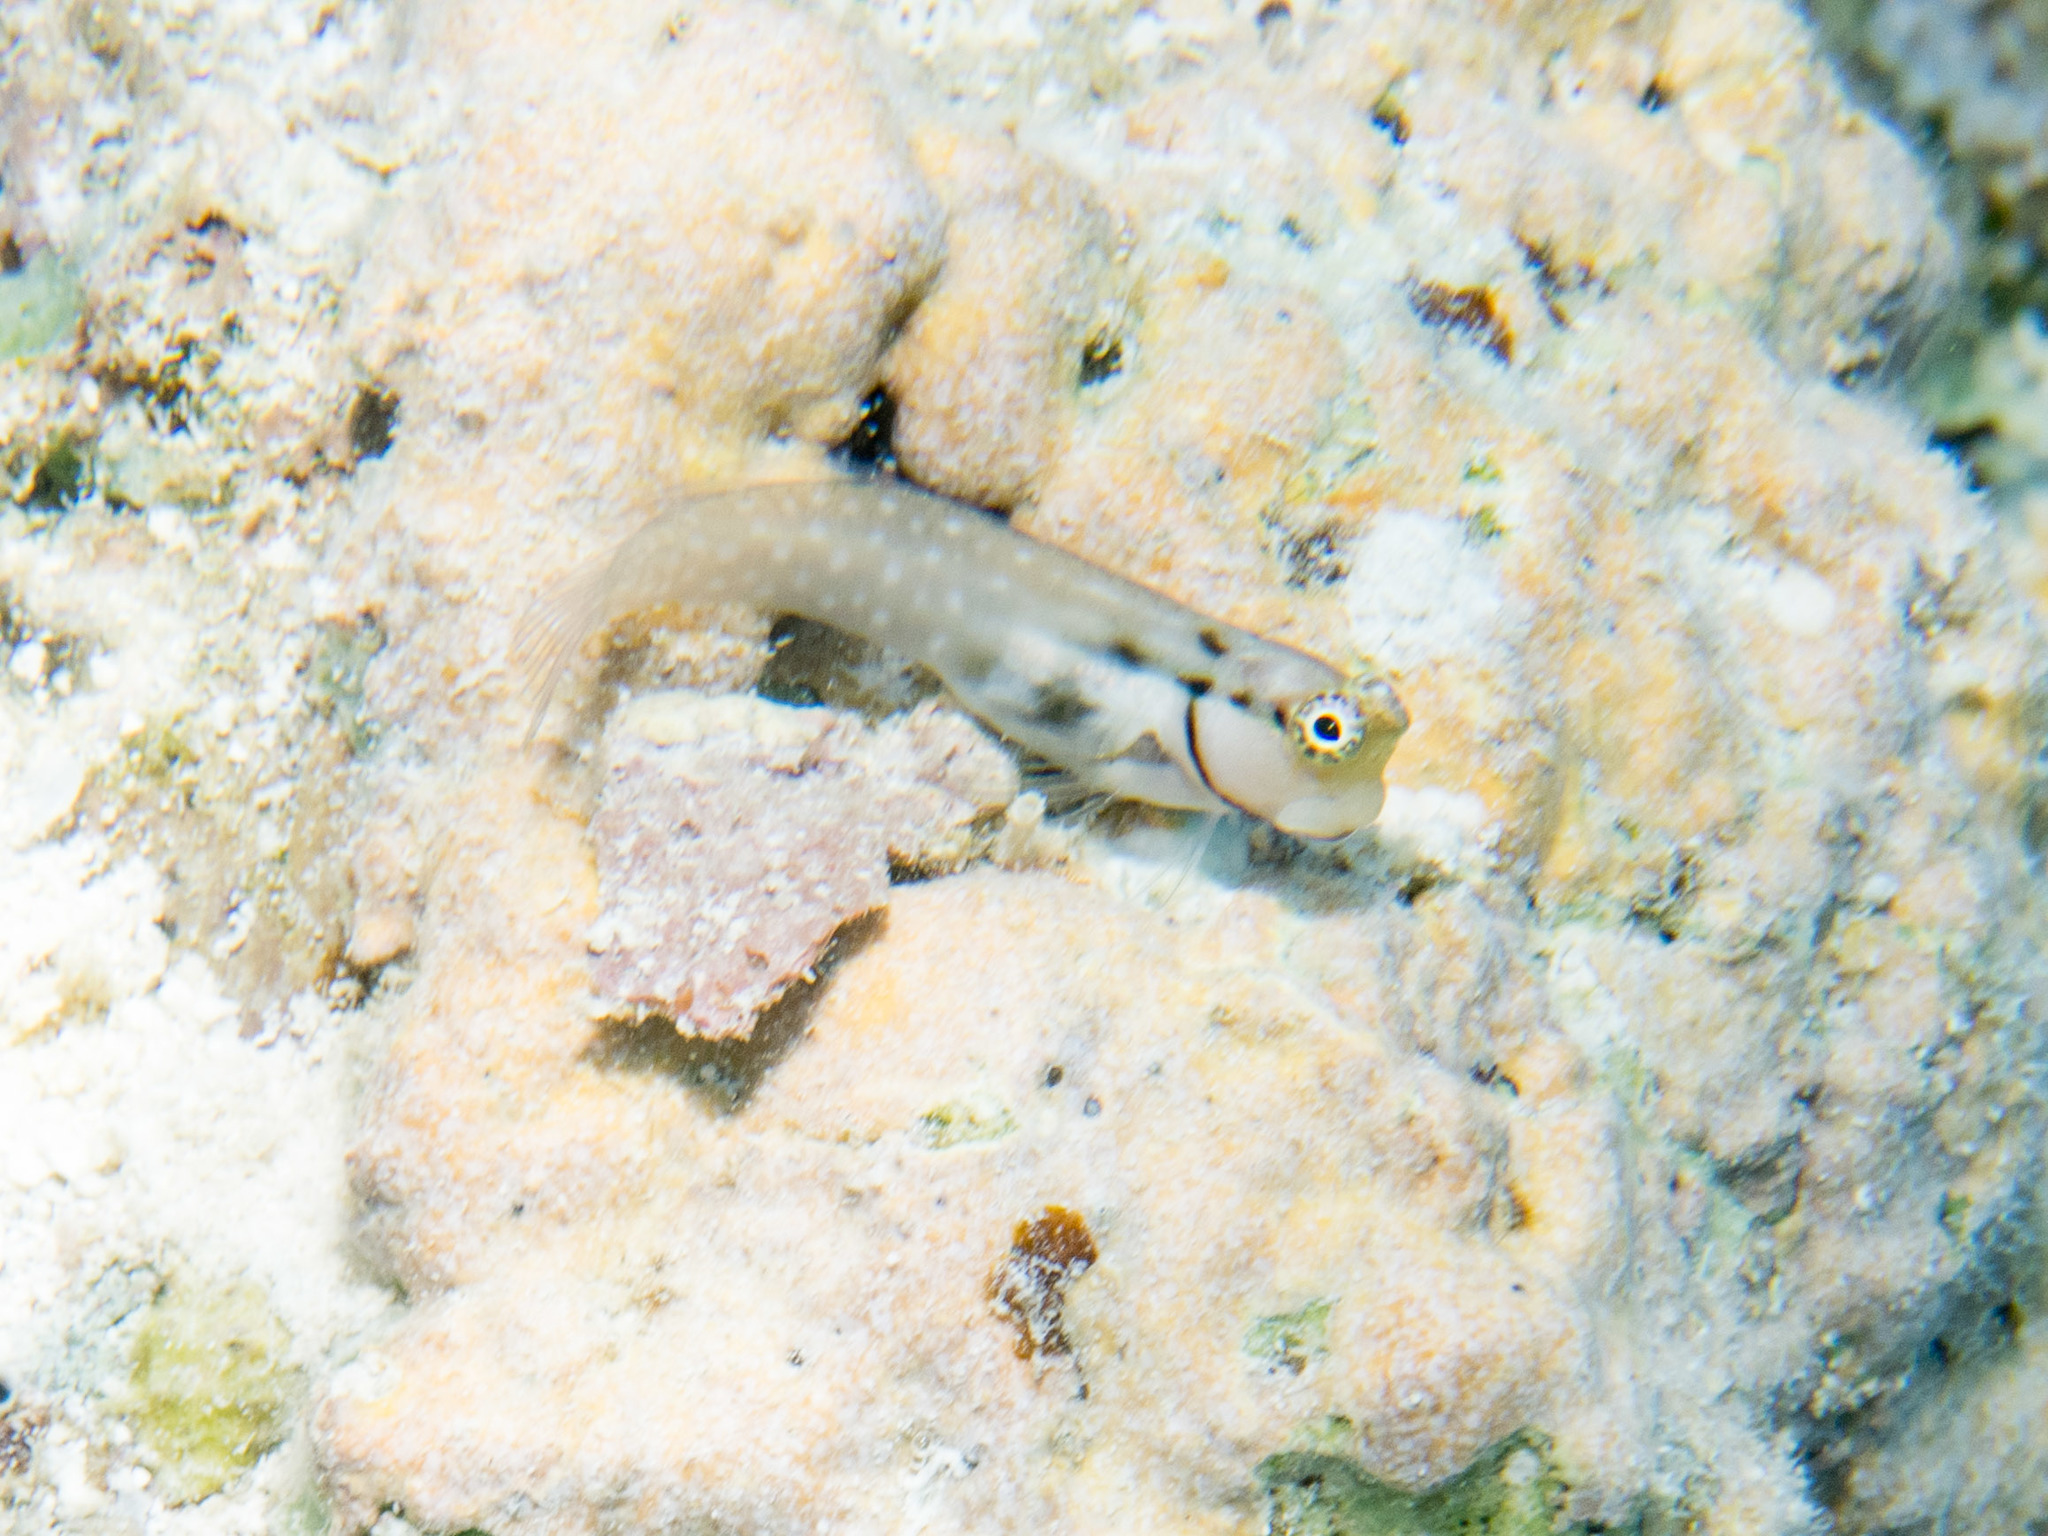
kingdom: Animalia
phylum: Chordata
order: Perciformes
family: Blenniidae
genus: Ecsenius
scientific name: Ecsenius minutus
